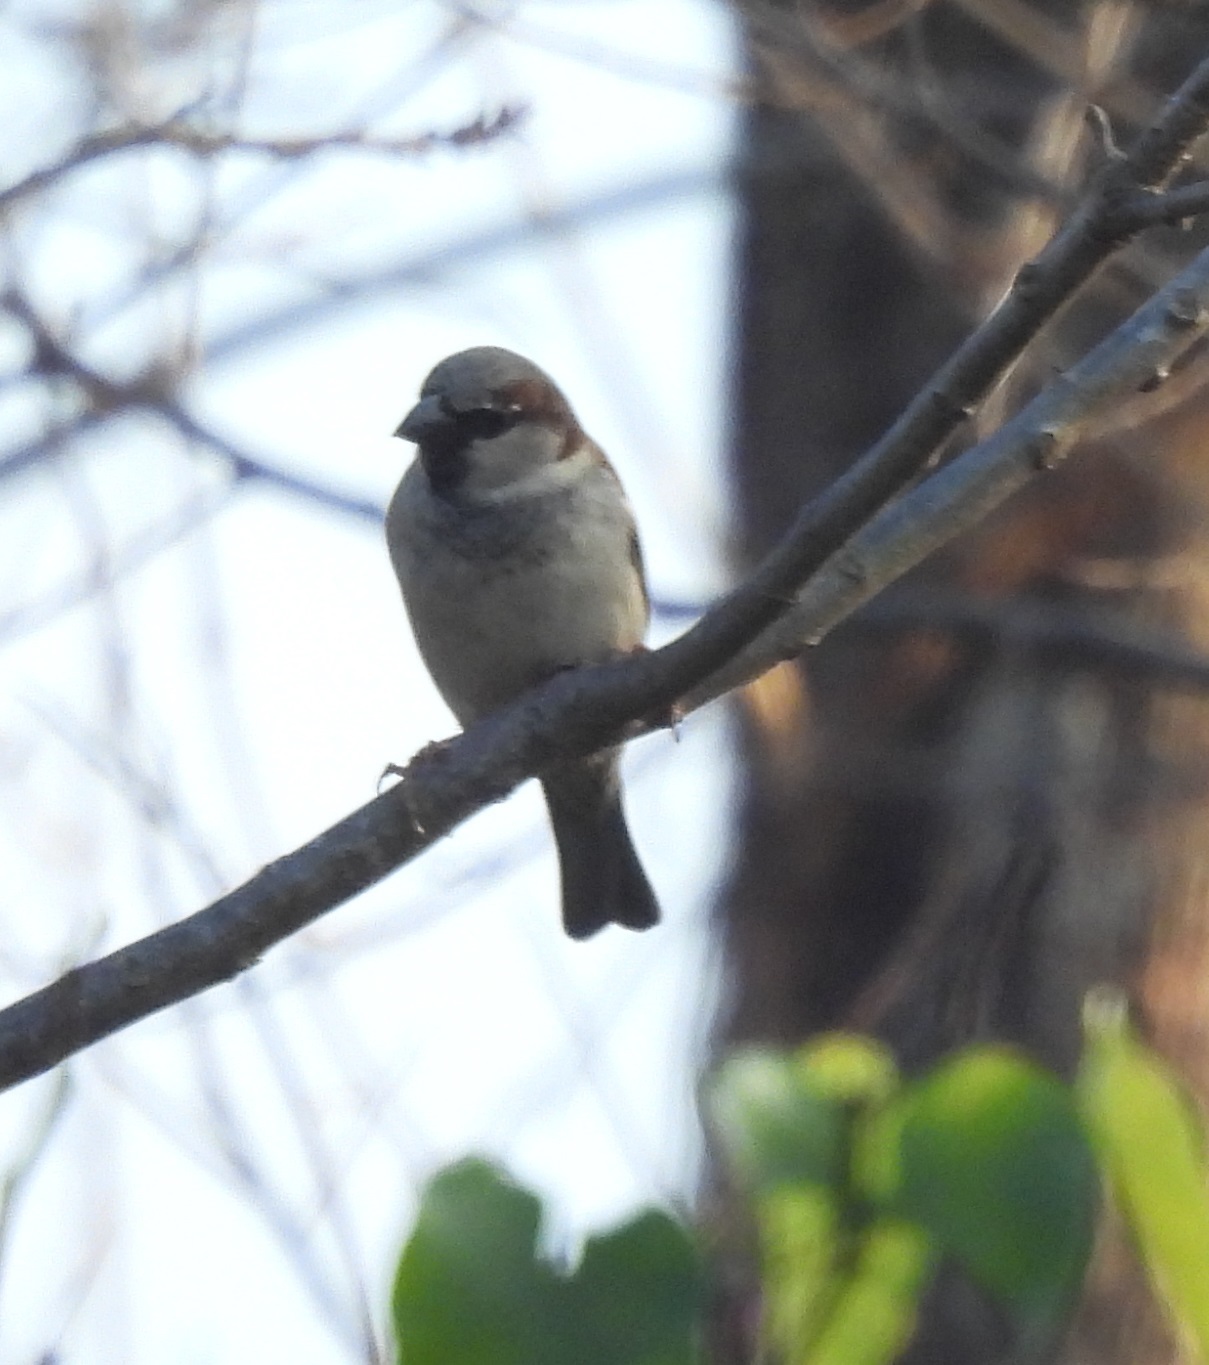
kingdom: Animalia
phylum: Chordata
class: Aves
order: Passeriformes
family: Passeridae
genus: Passer
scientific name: Passer domesticus
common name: House sparrow
